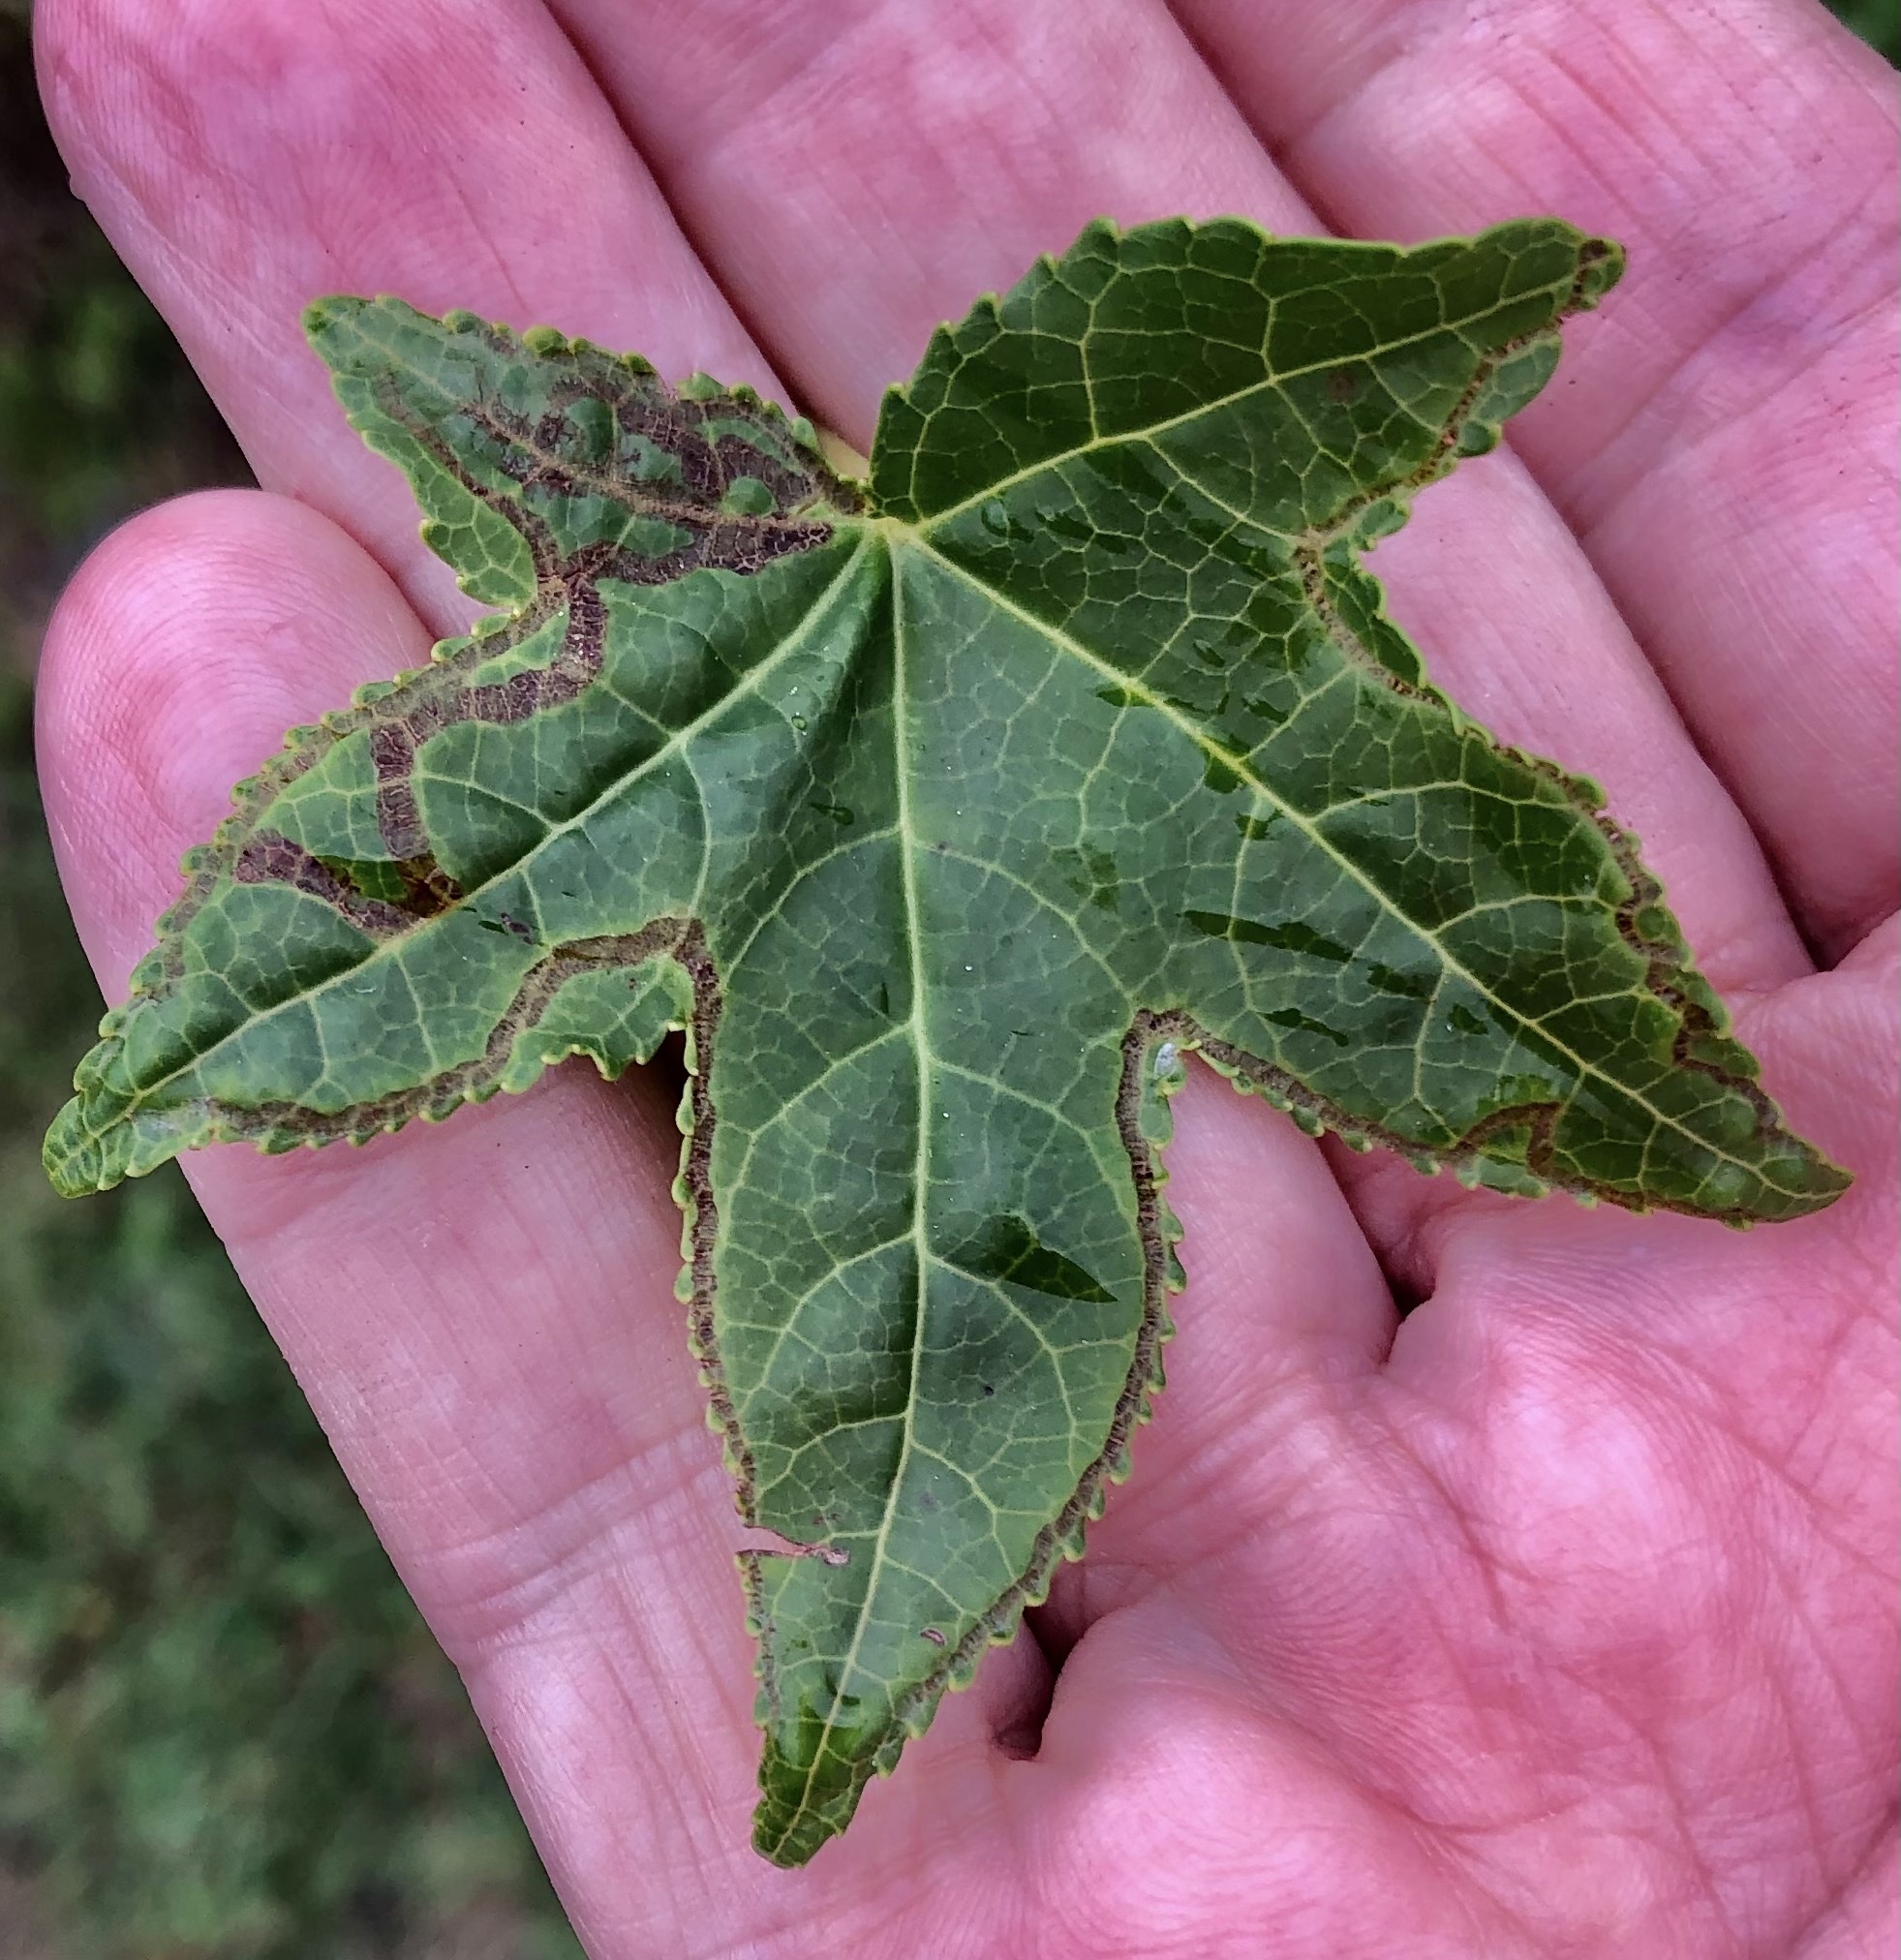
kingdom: Animalia
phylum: Arthropoda
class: Insecta
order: Lepidoptera
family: Gracillariidae
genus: Phyllocnistis
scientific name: Phyllocnistis liquidambarisella
